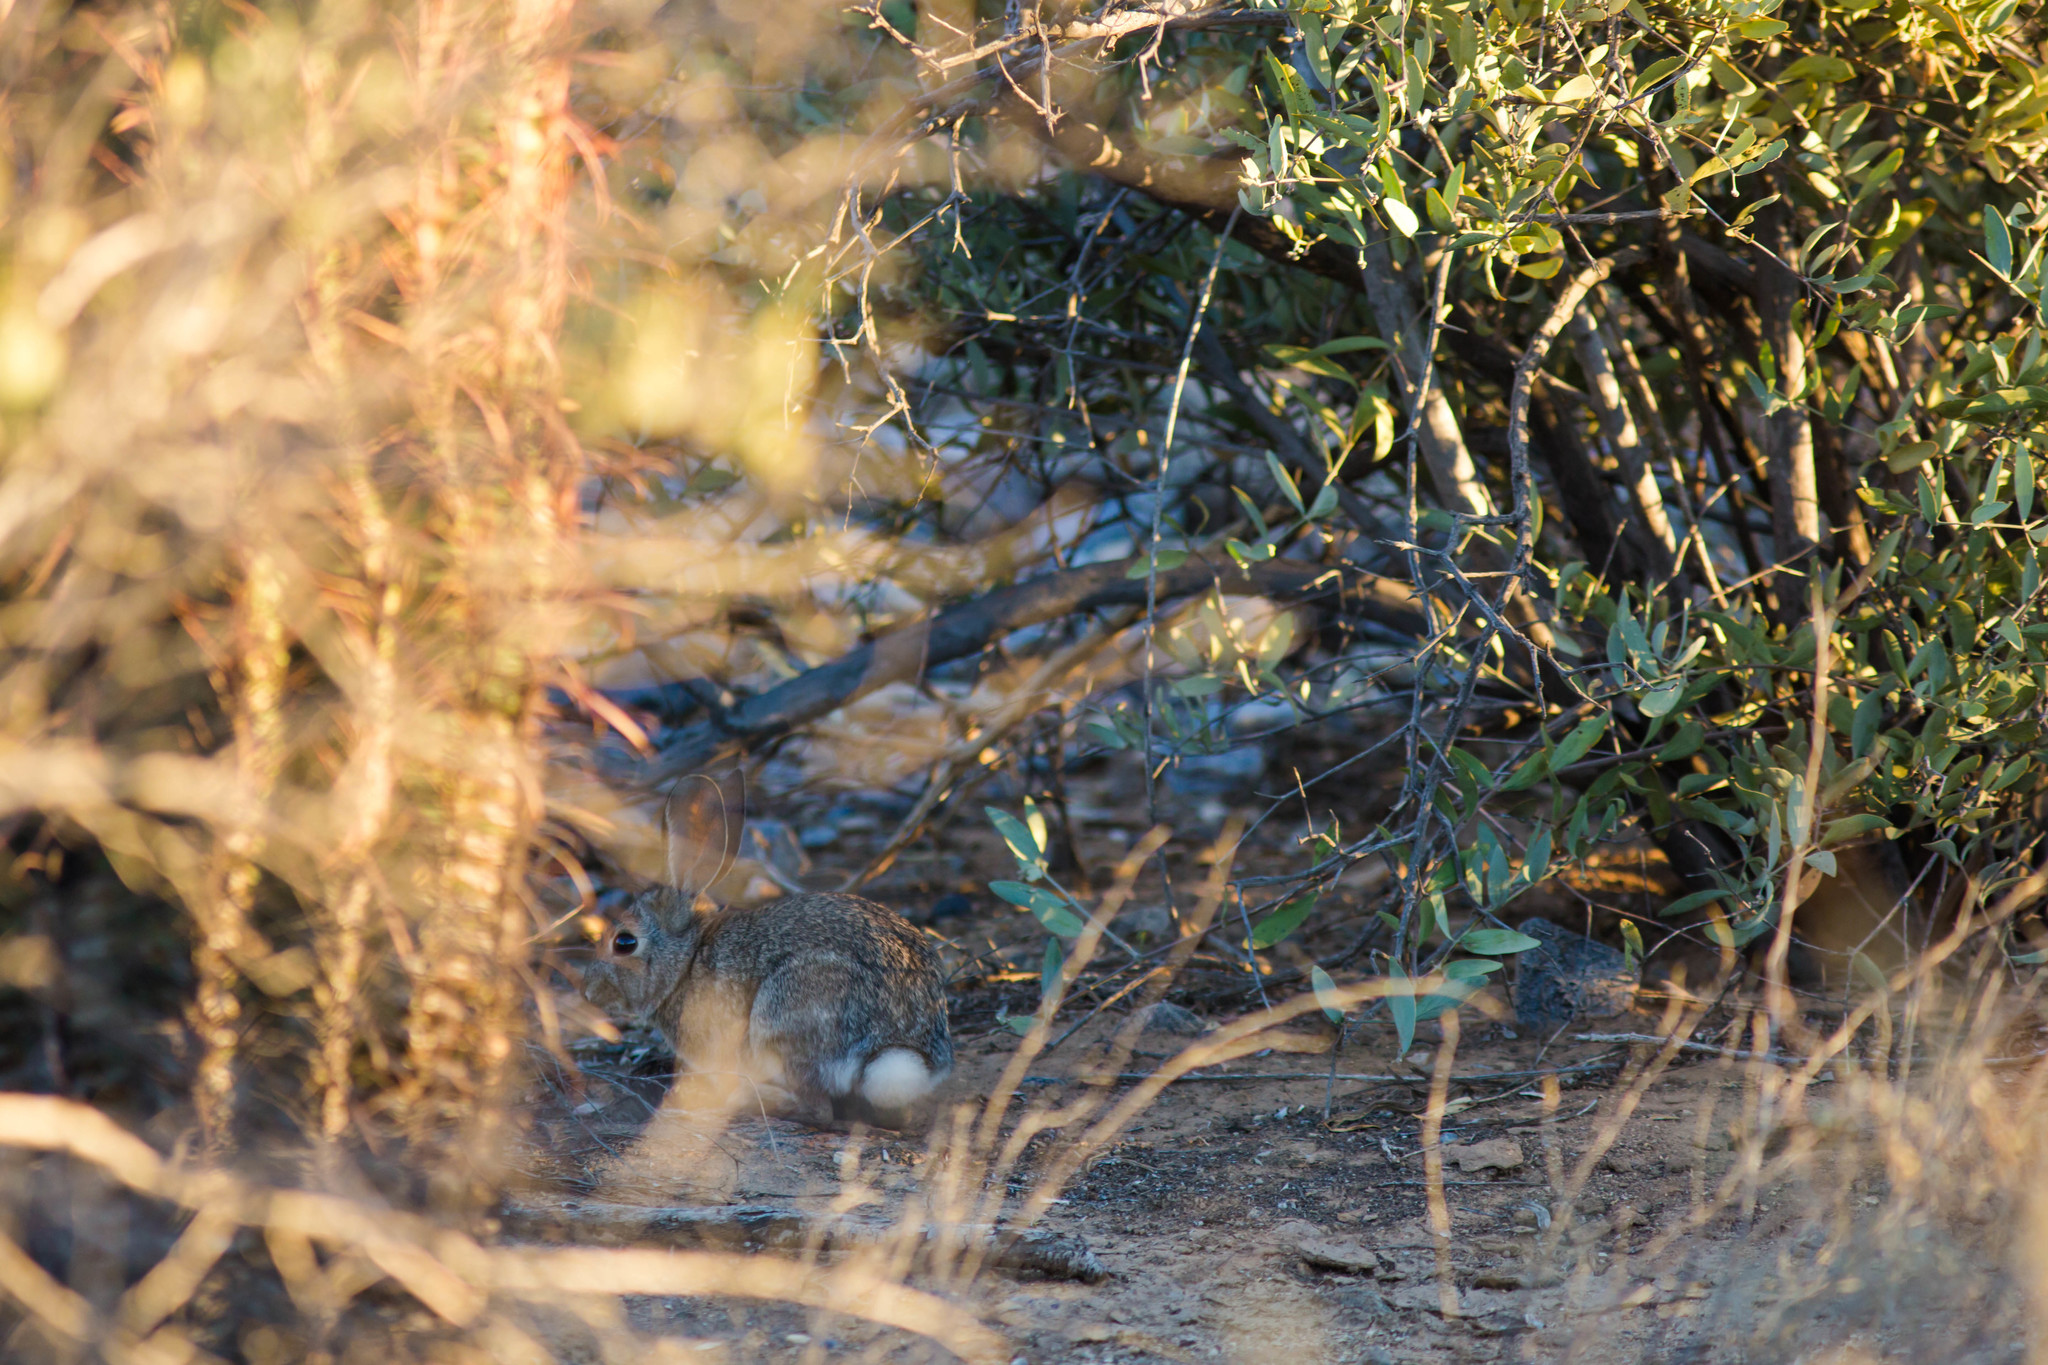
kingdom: Animalia
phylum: Chordata
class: Mammalia
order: Lagomorpha
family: Leporidae
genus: Sylvilagus
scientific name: Sylvilagus audubonii
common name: Desert cottontail
